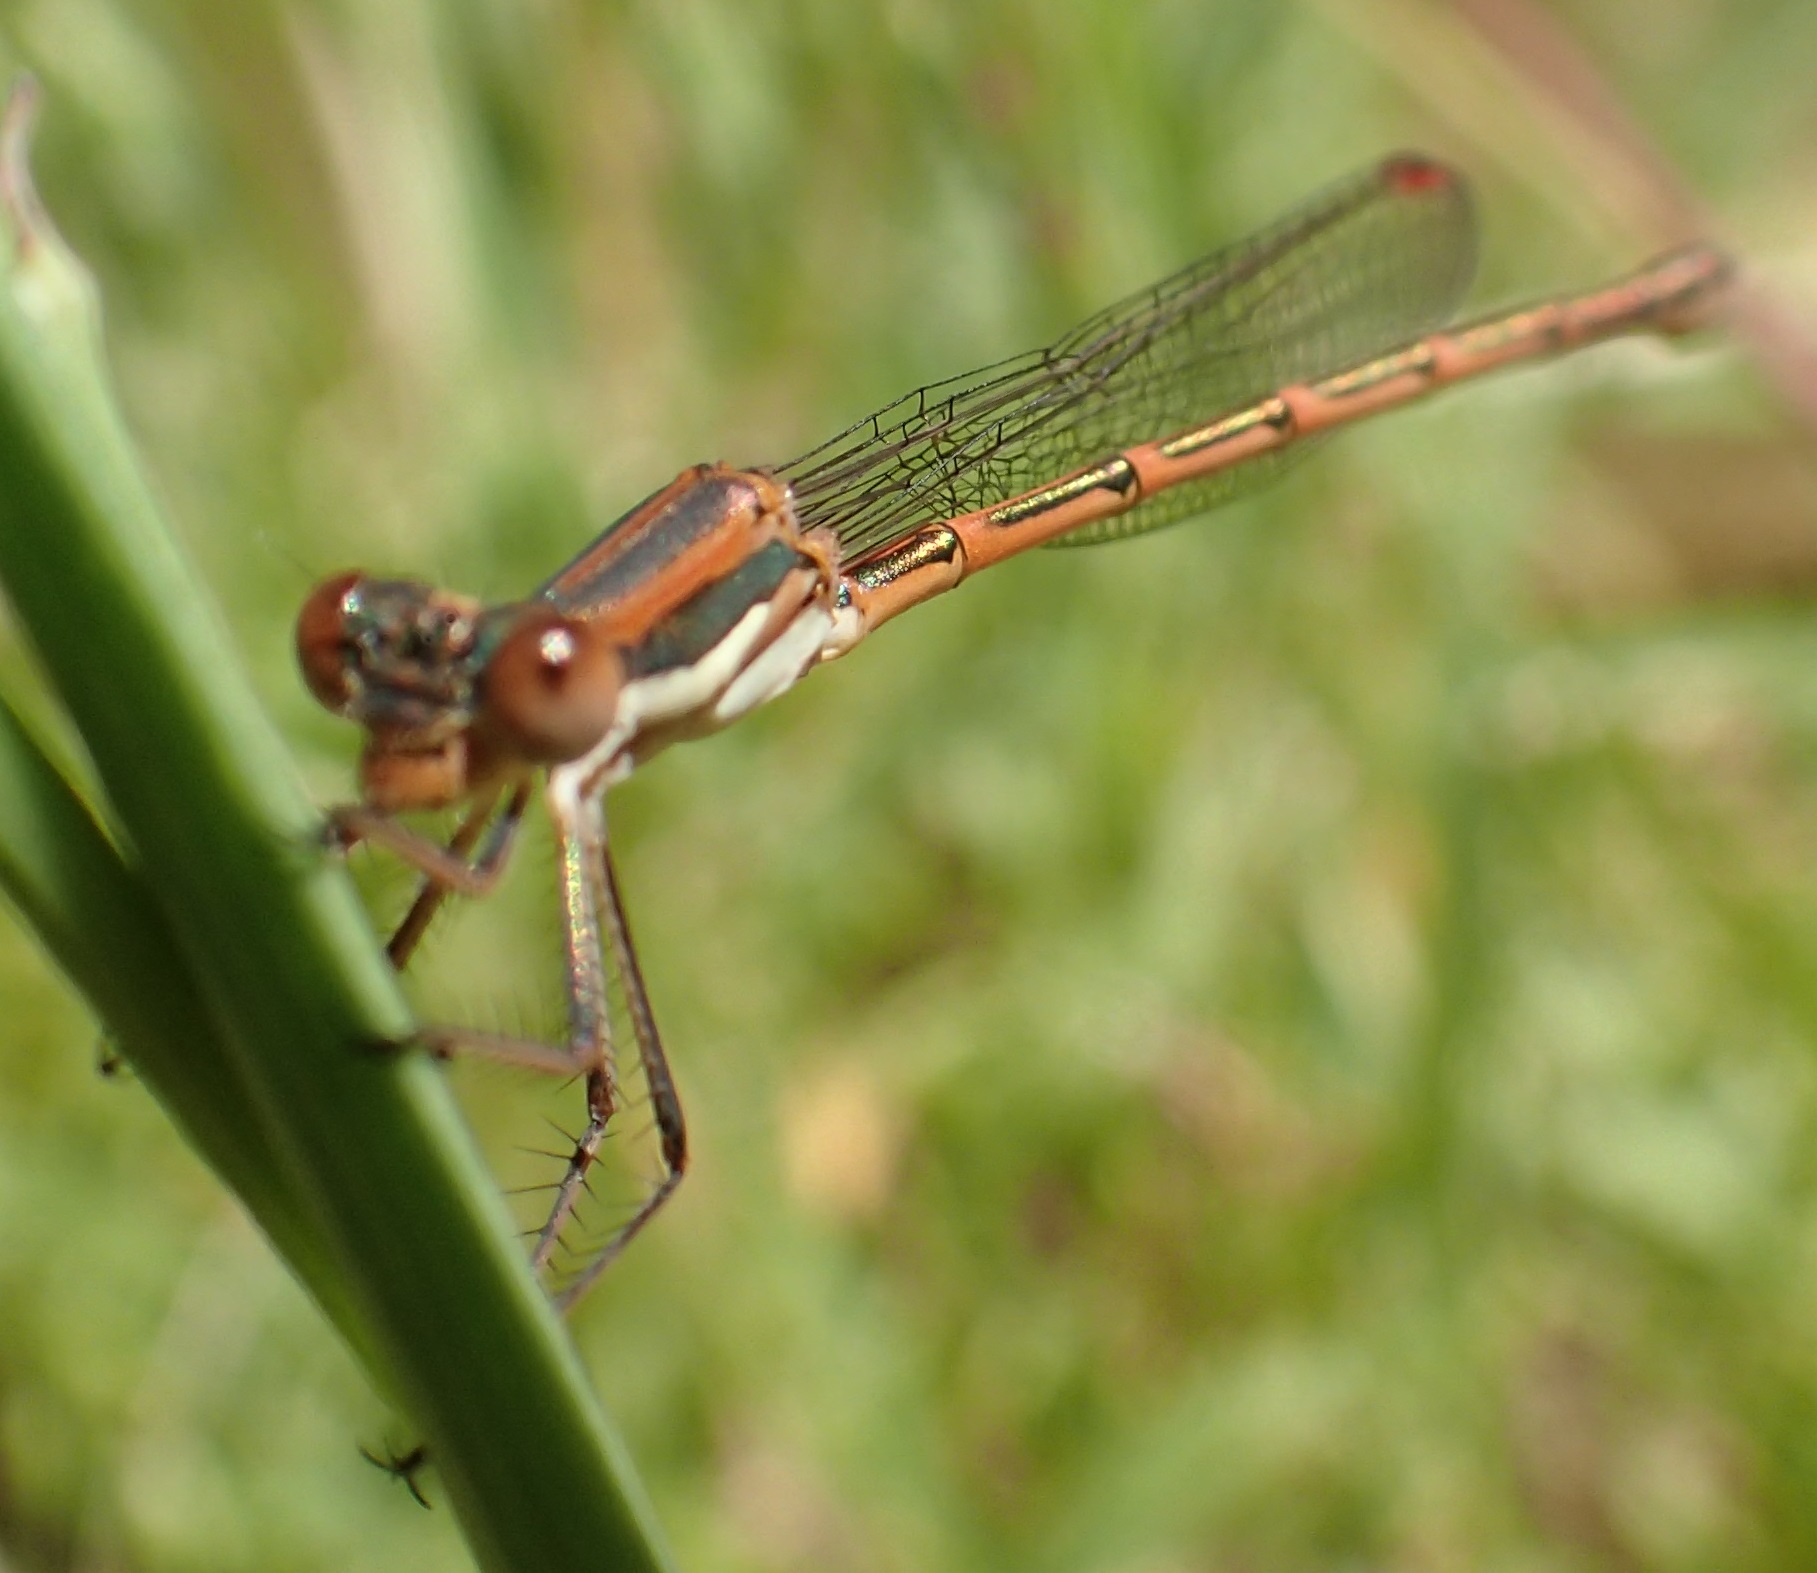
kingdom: Animalia
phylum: Arthropoda
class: Insecta
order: Odonata
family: Lestidae
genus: Austrolestes
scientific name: Austrolestes analis
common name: Slender ringtail
